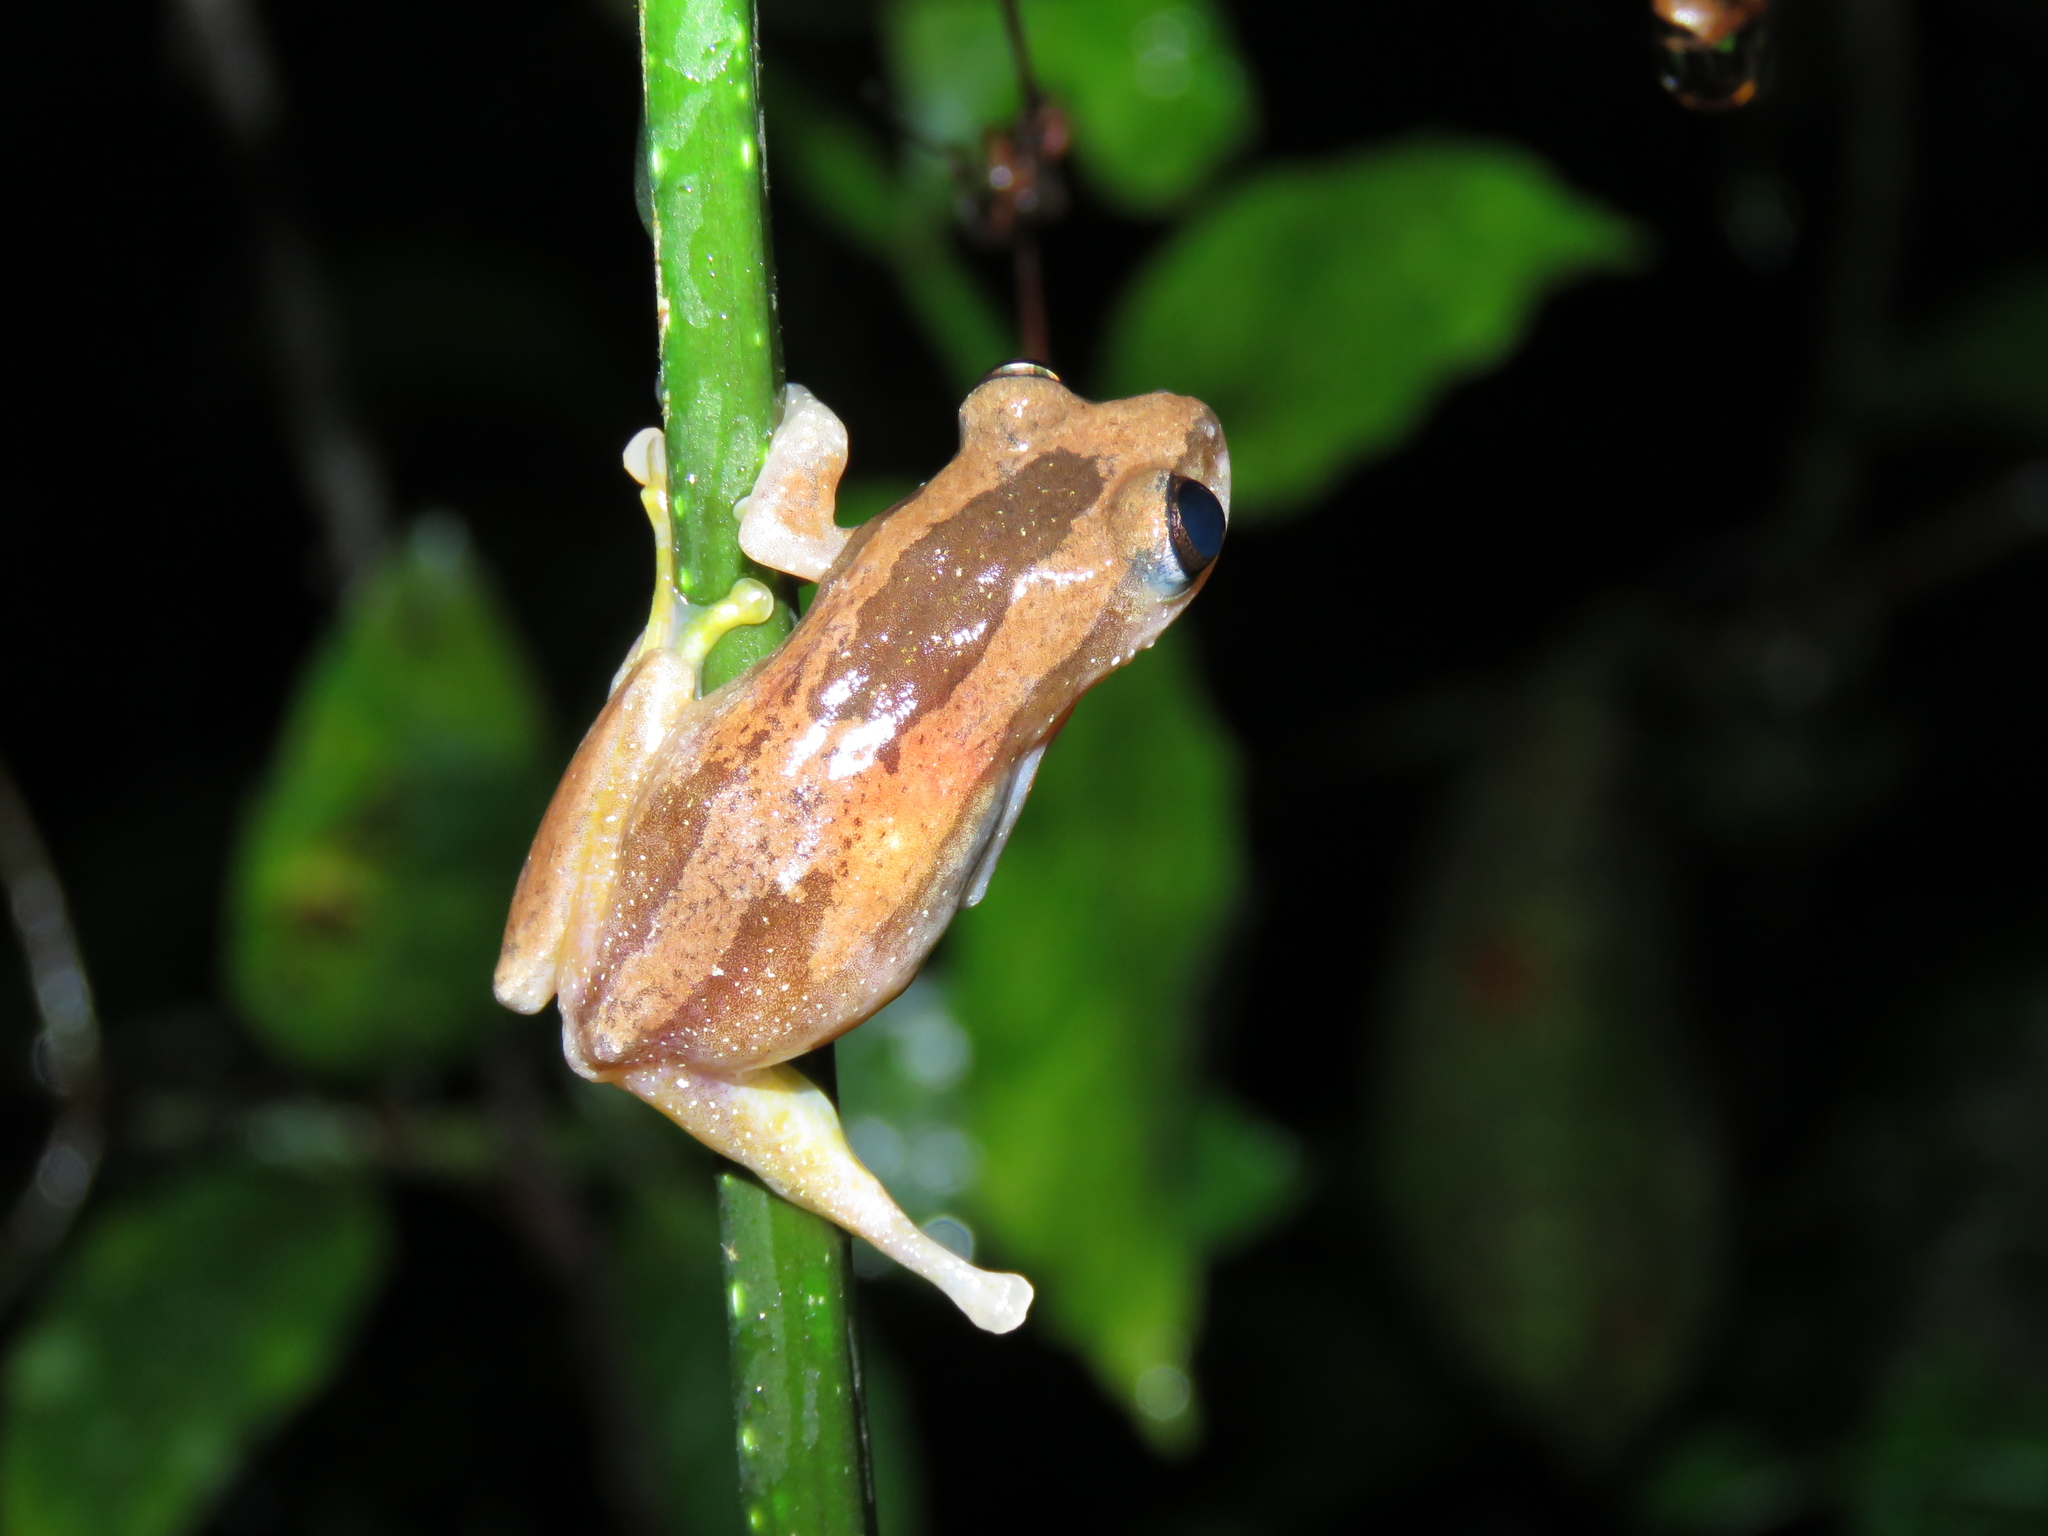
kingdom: Animalia
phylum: Chordata
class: Amphibia
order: Anura
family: Hyperoliidae
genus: Afrixalus
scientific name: Afrixalus osorioi
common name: Congro spiny reed frog
